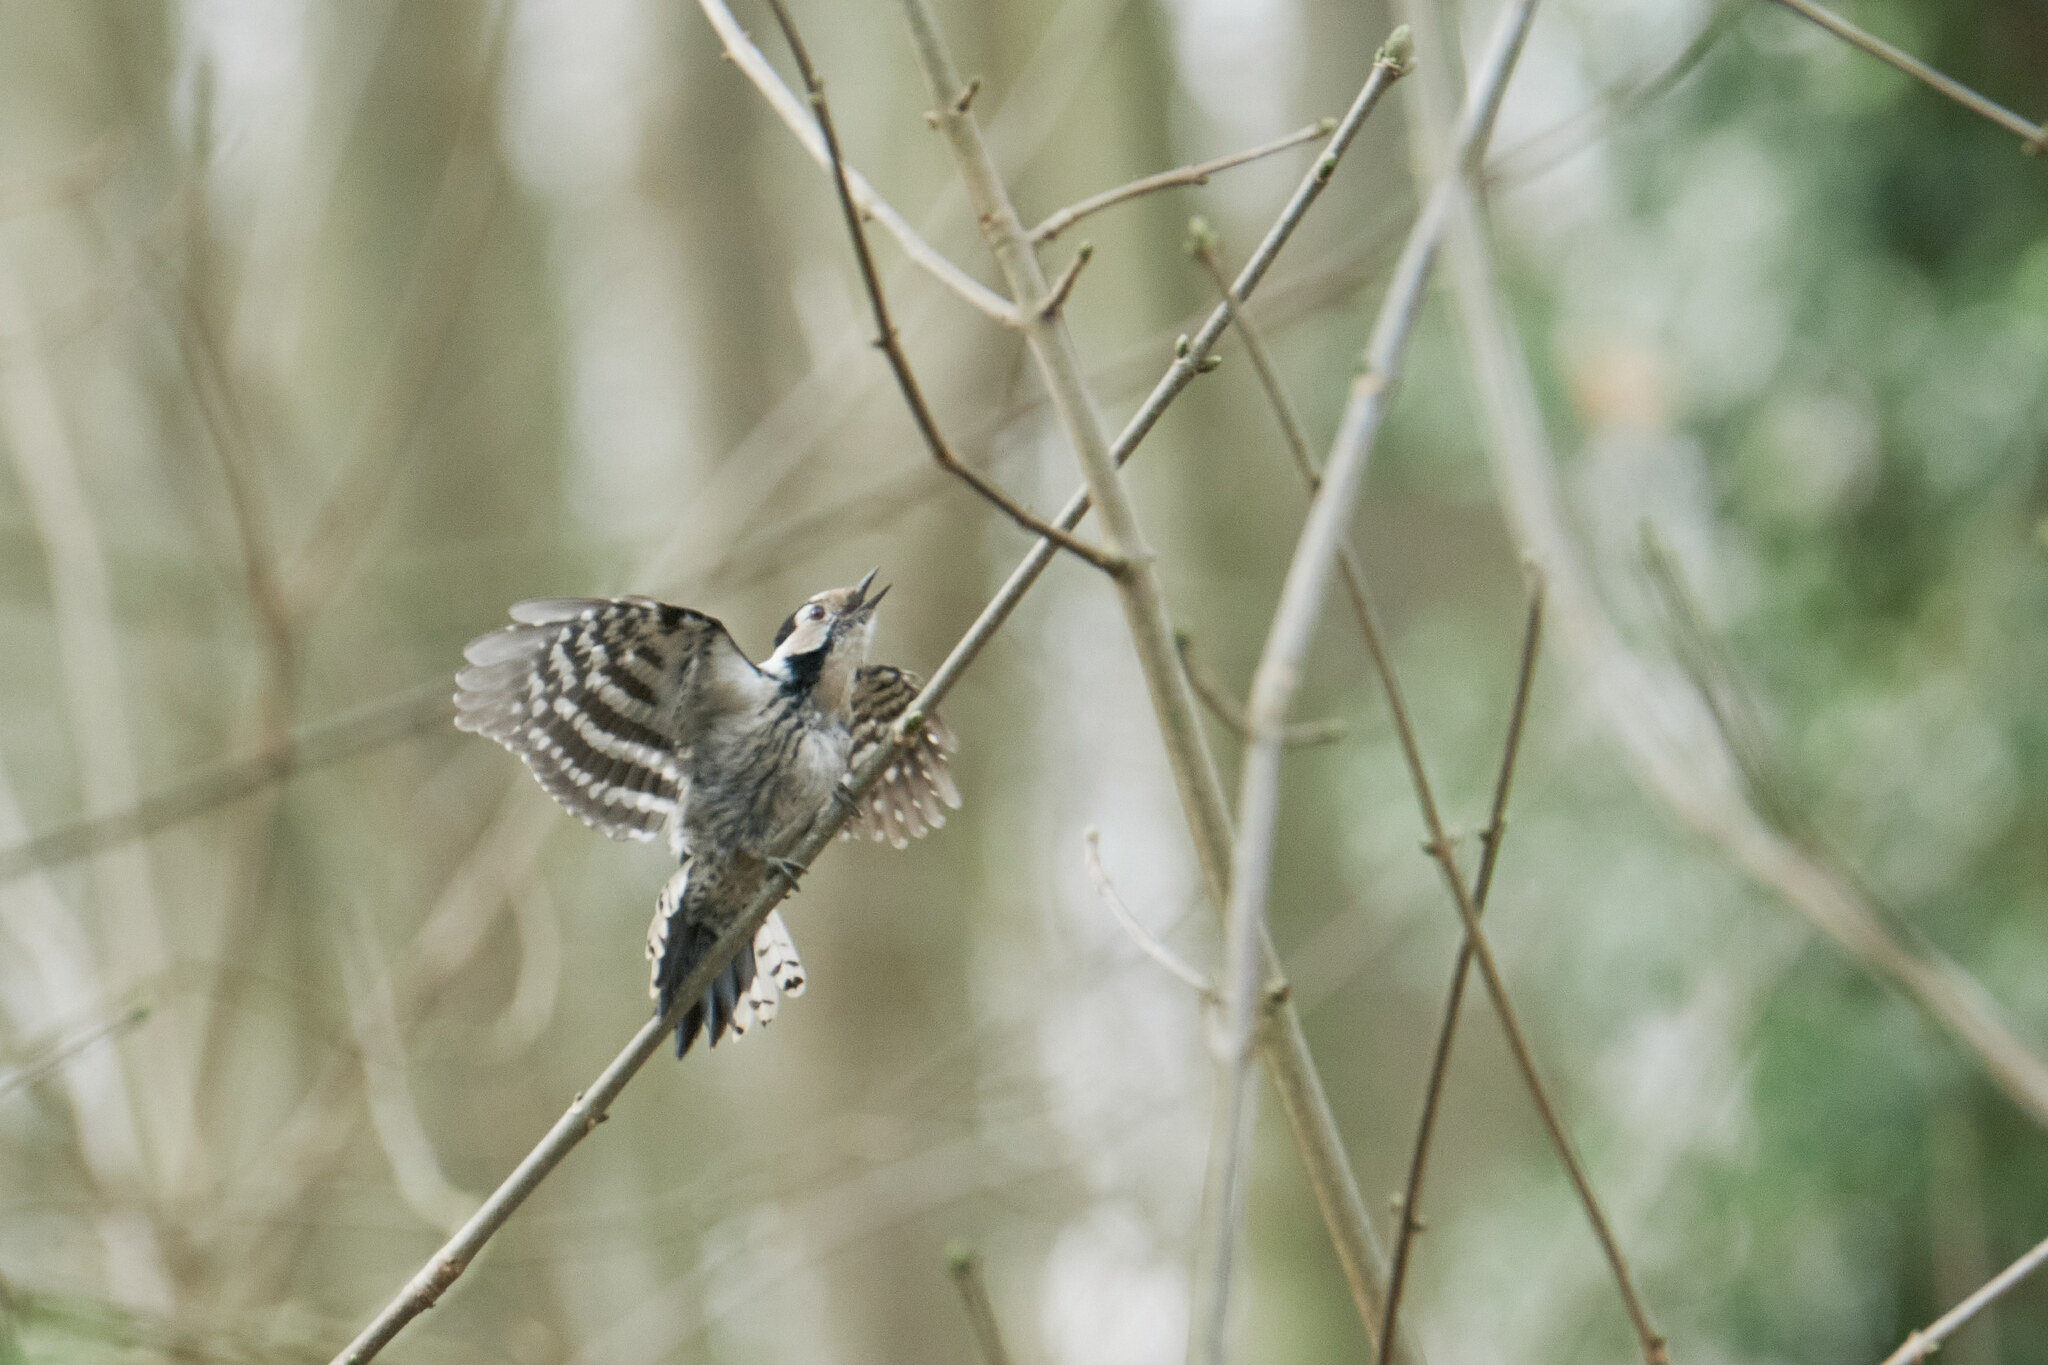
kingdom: Animalia
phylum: Chordata
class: Aves
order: Piciformes
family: Picidae
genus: Dryobates
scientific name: Dryobates minor
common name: Lesser spotted woodpecker
